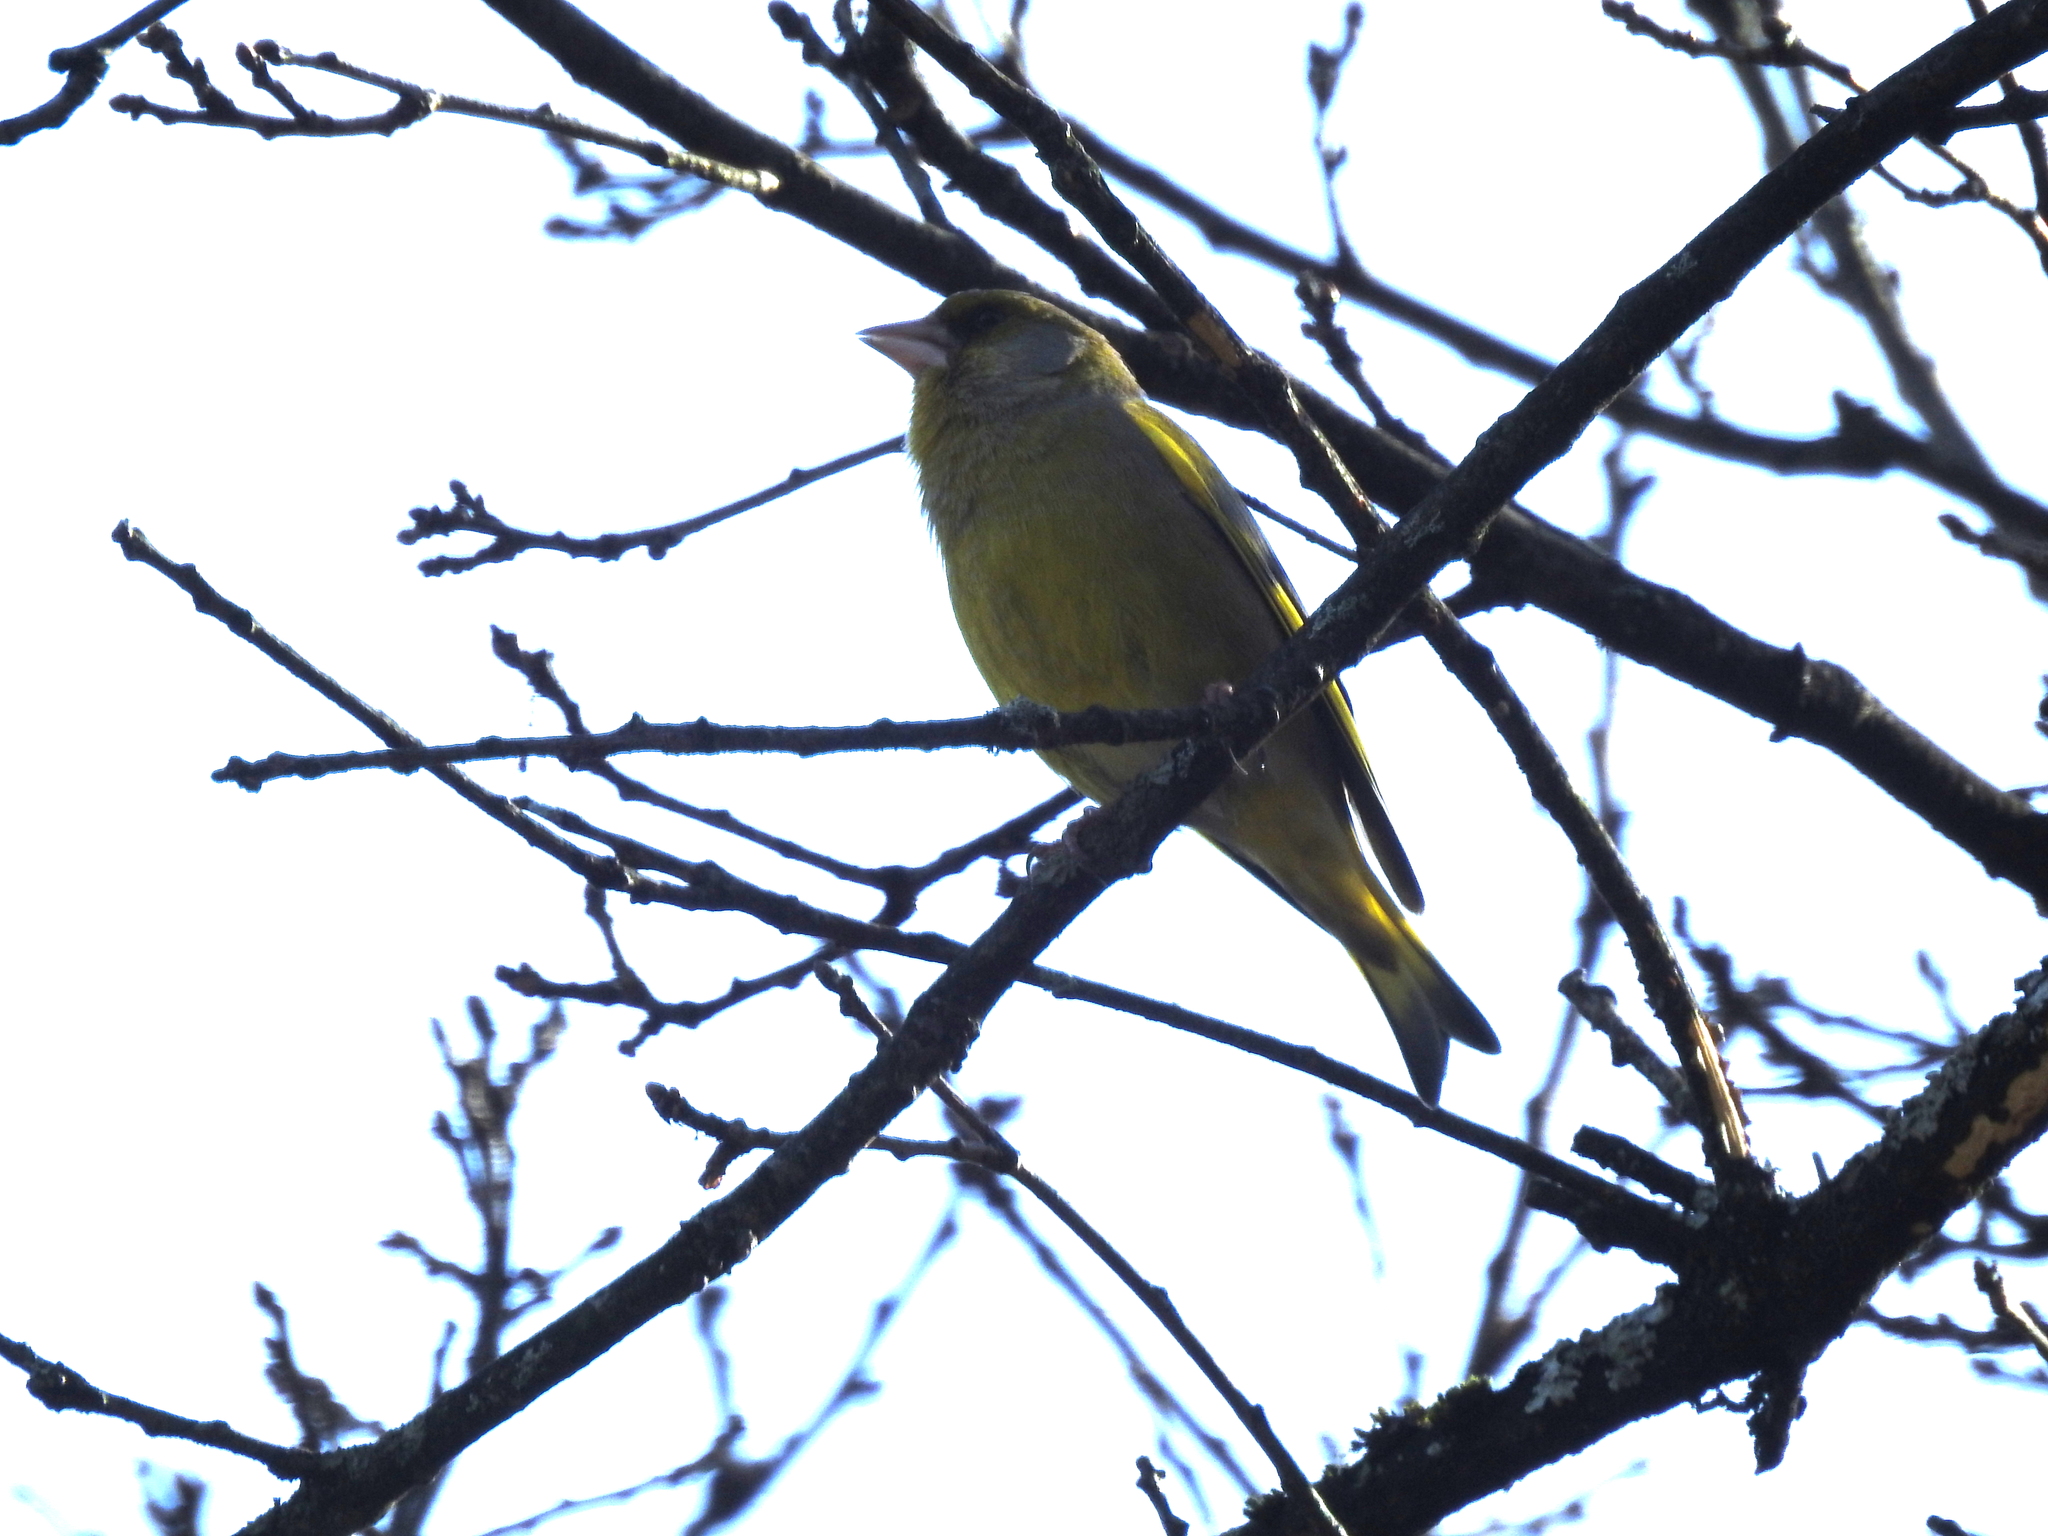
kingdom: Plantae
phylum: Tracheophyta
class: Liliopsida
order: Poales
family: Poaceae
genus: Chloris
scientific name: Chloris chloris
